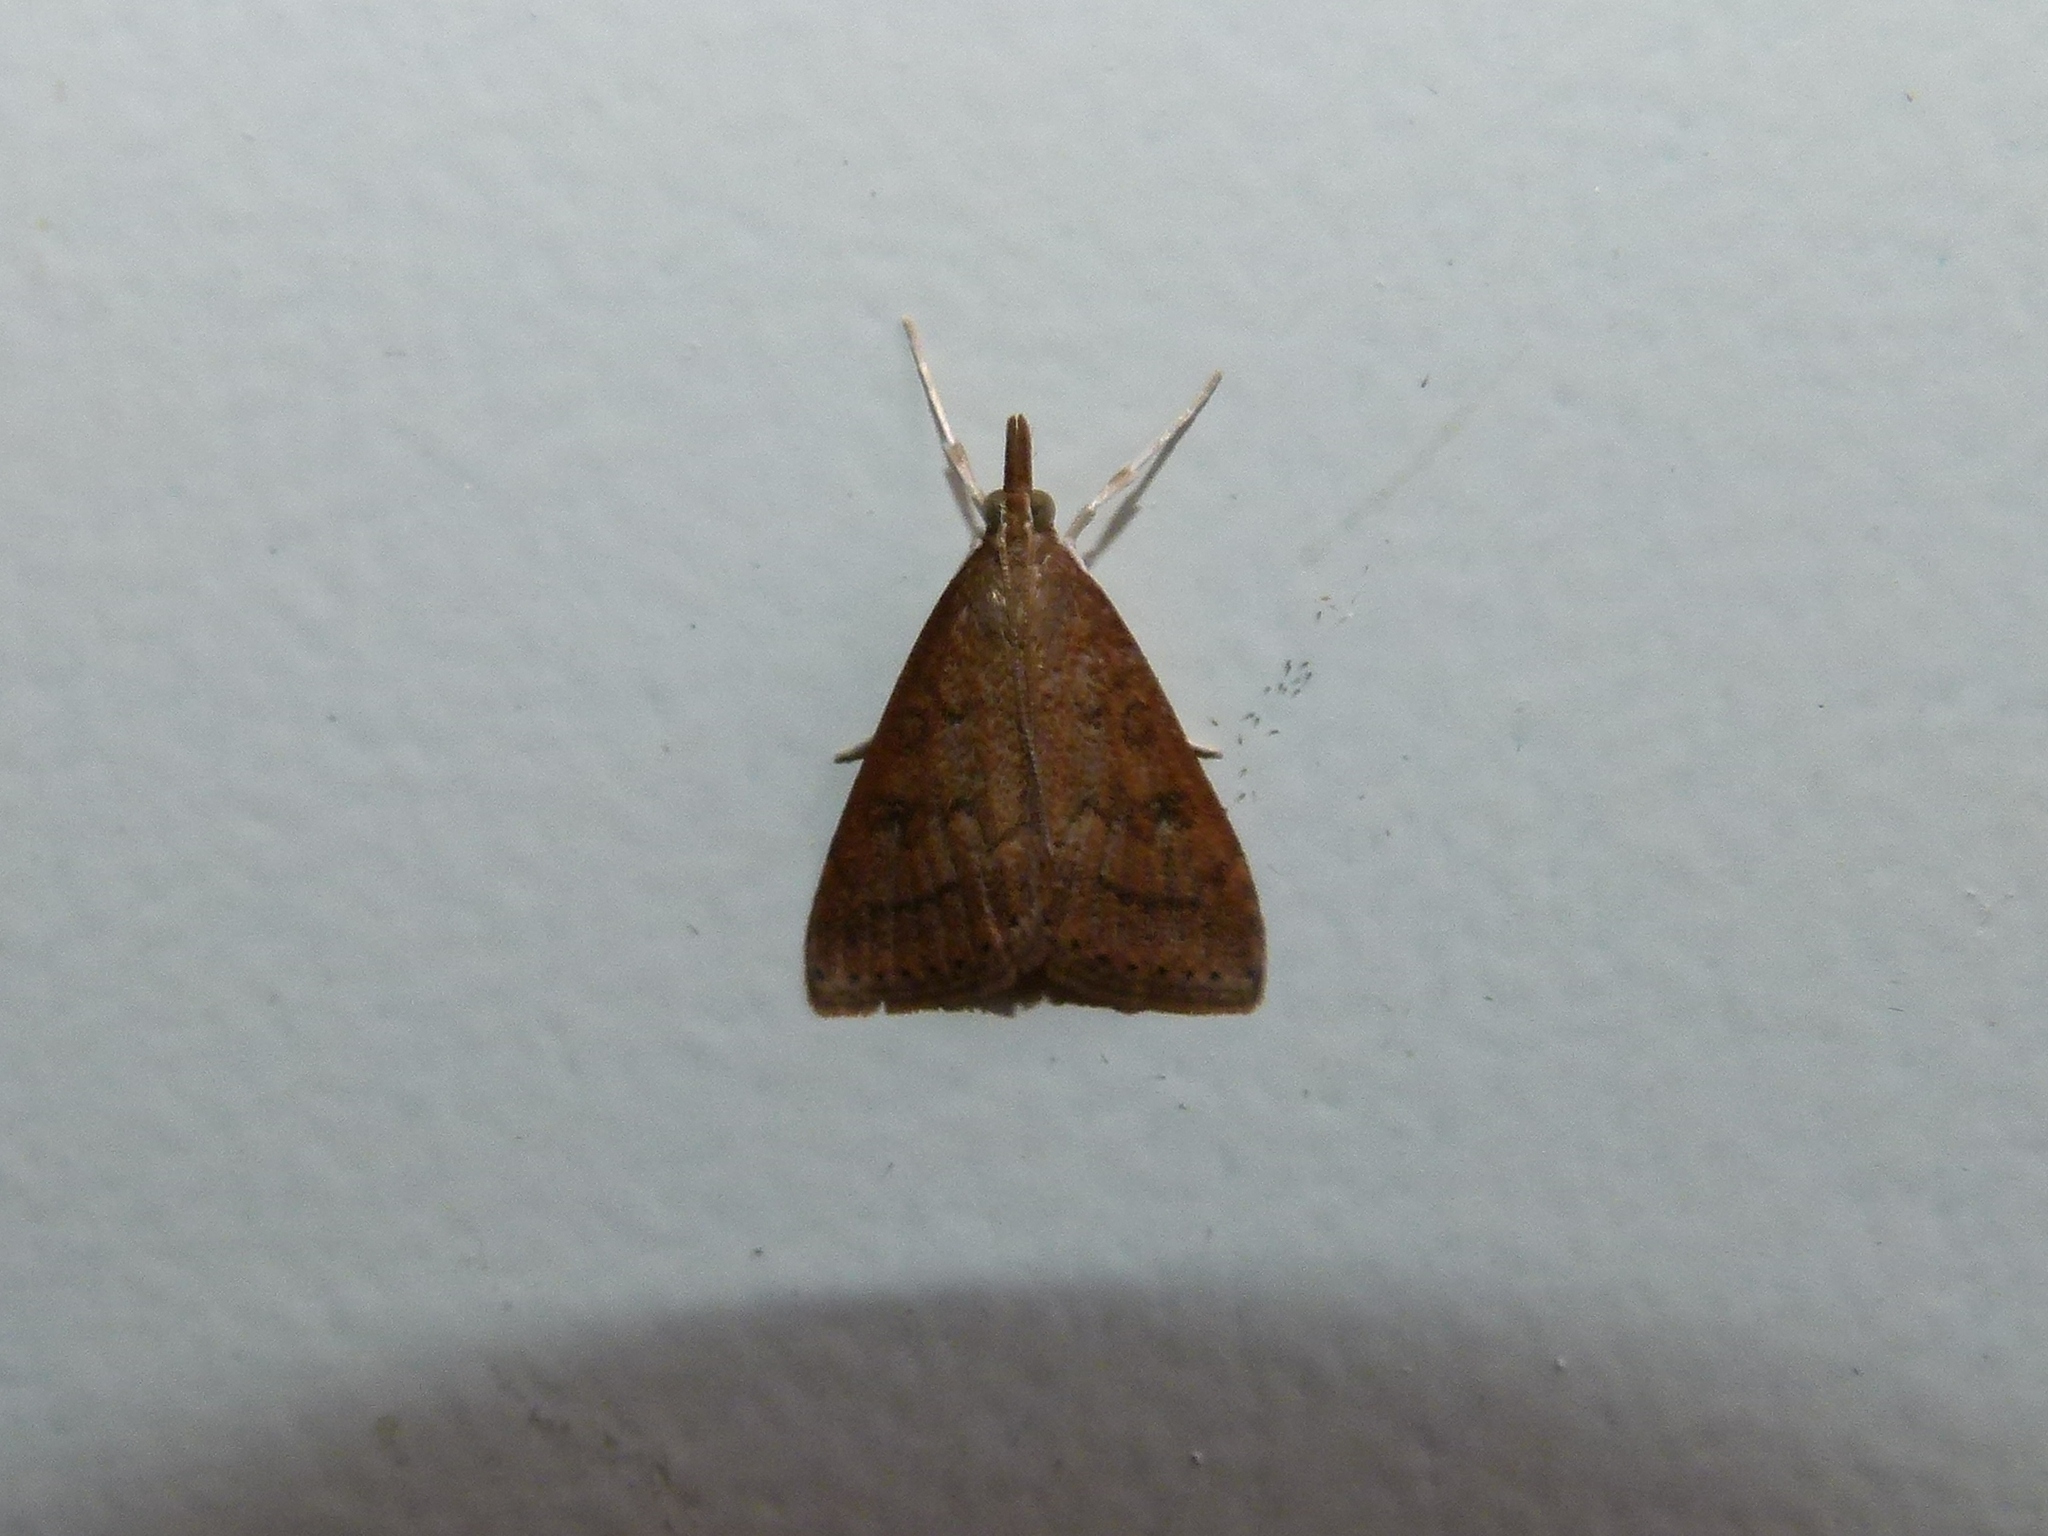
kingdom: Animalia
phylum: Arthropoda
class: Insecta
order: Lepidoptera
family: Crambidae
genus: Udea
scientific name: Udea rubigalis
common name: Celery leaftier moth
